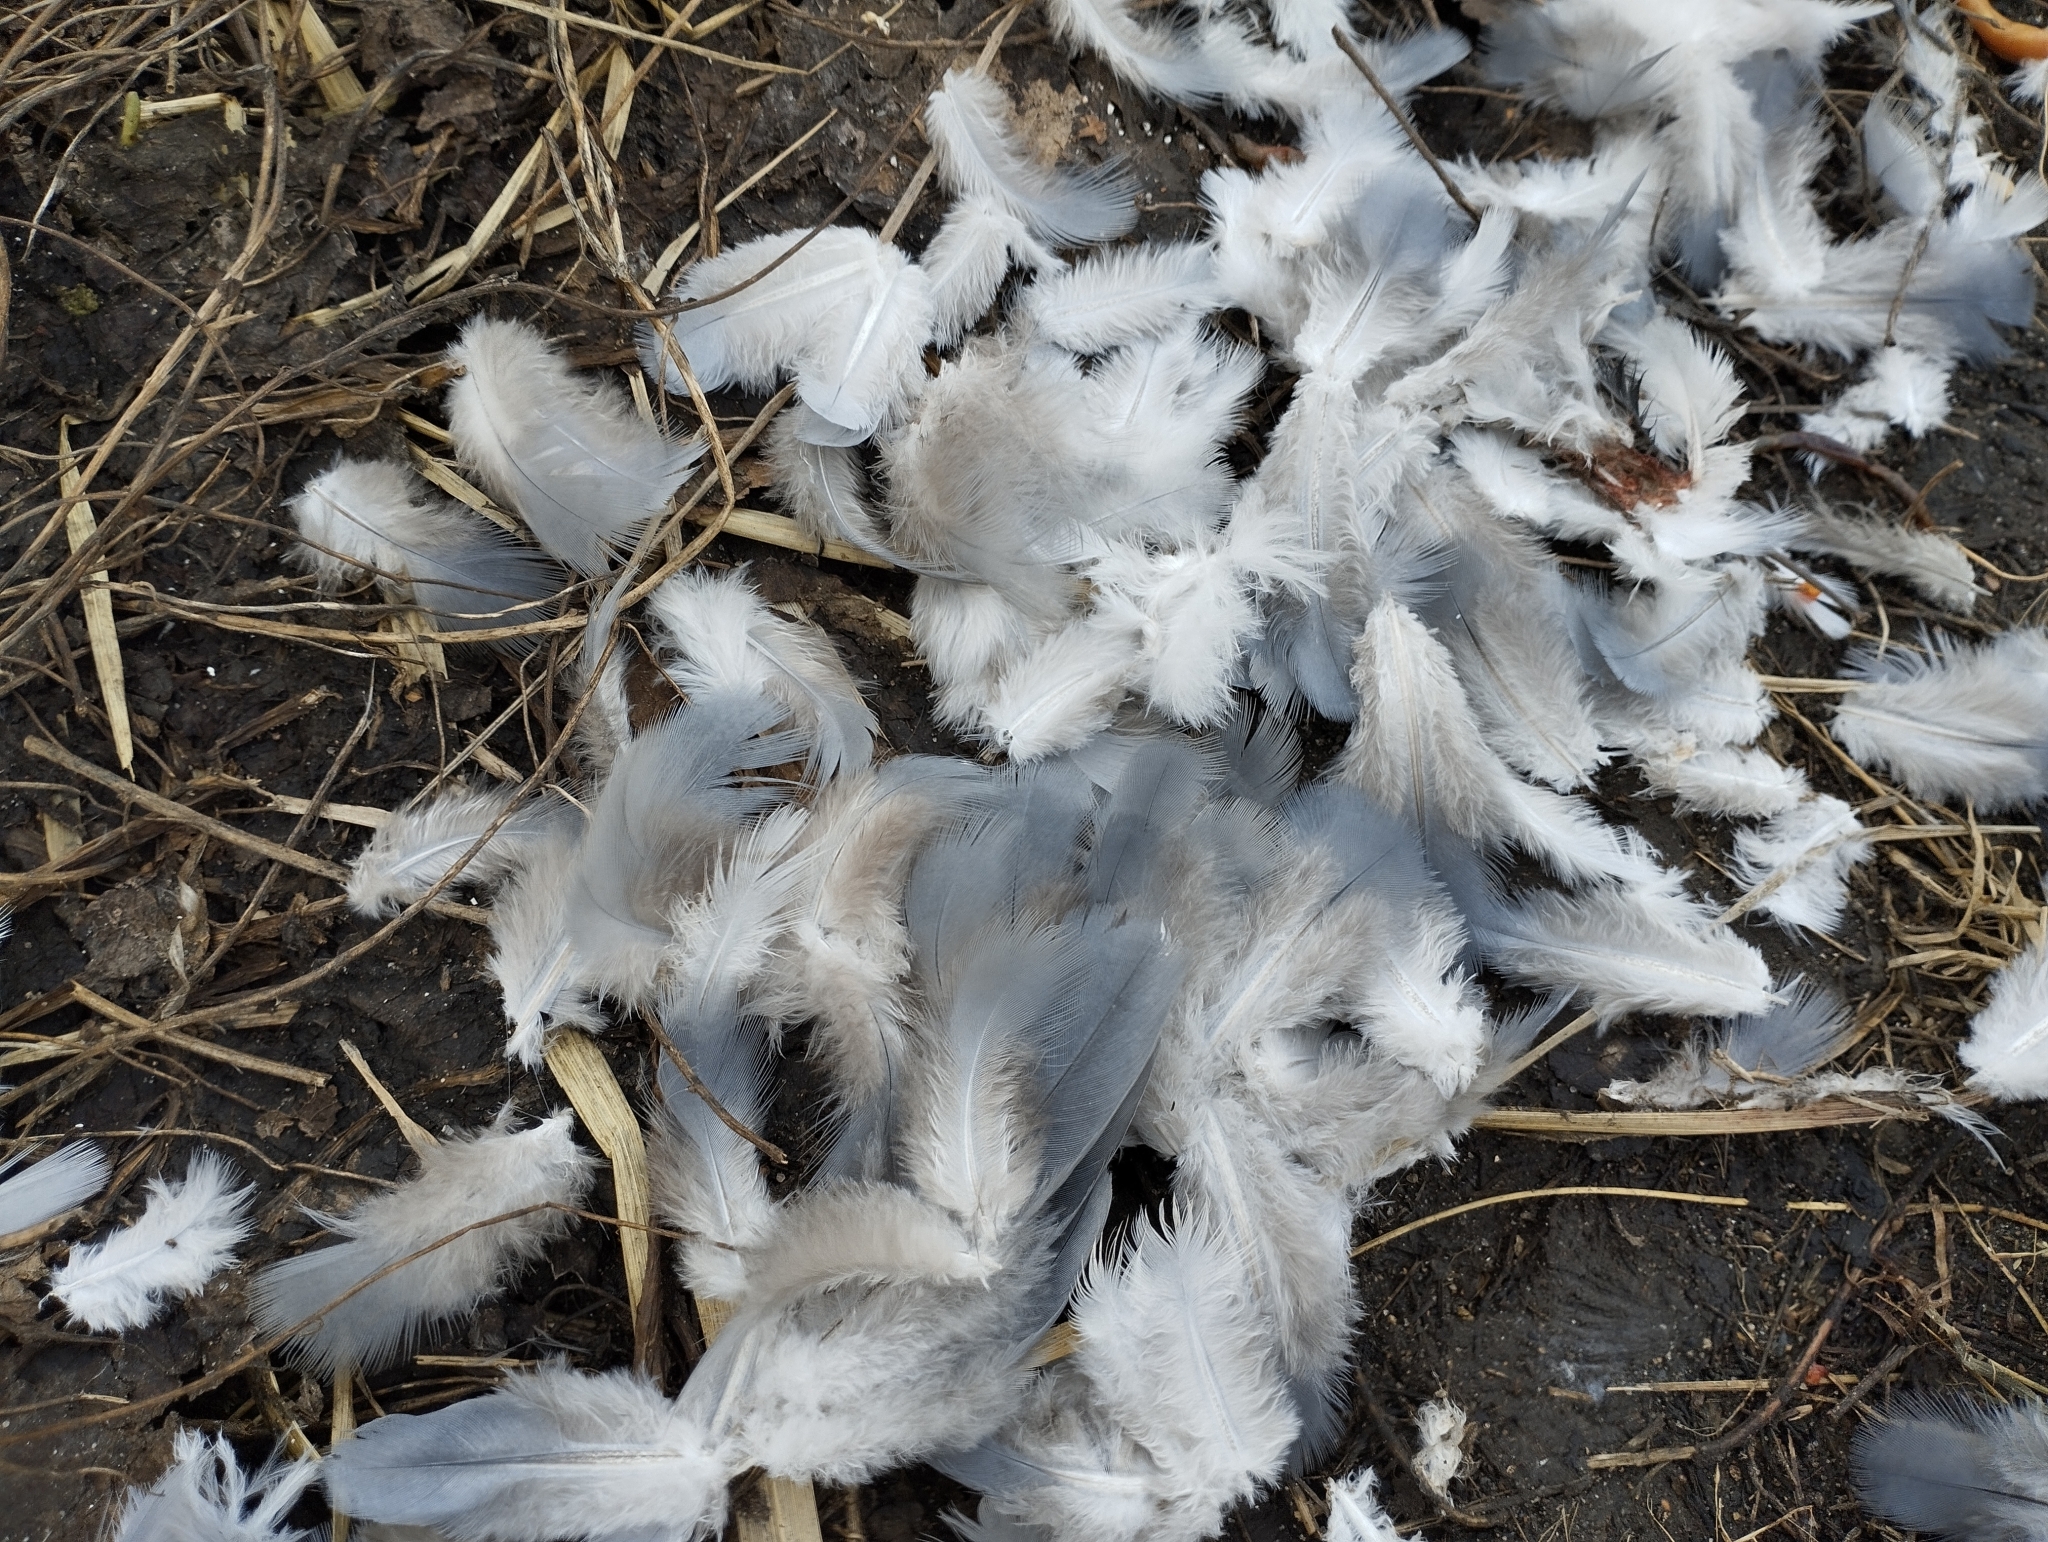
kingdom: Animalia
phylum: Chordata
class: Aves
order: Columbiformes
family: Columbidae
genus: Columba
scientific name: Columba livia
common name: Rock pigeon
